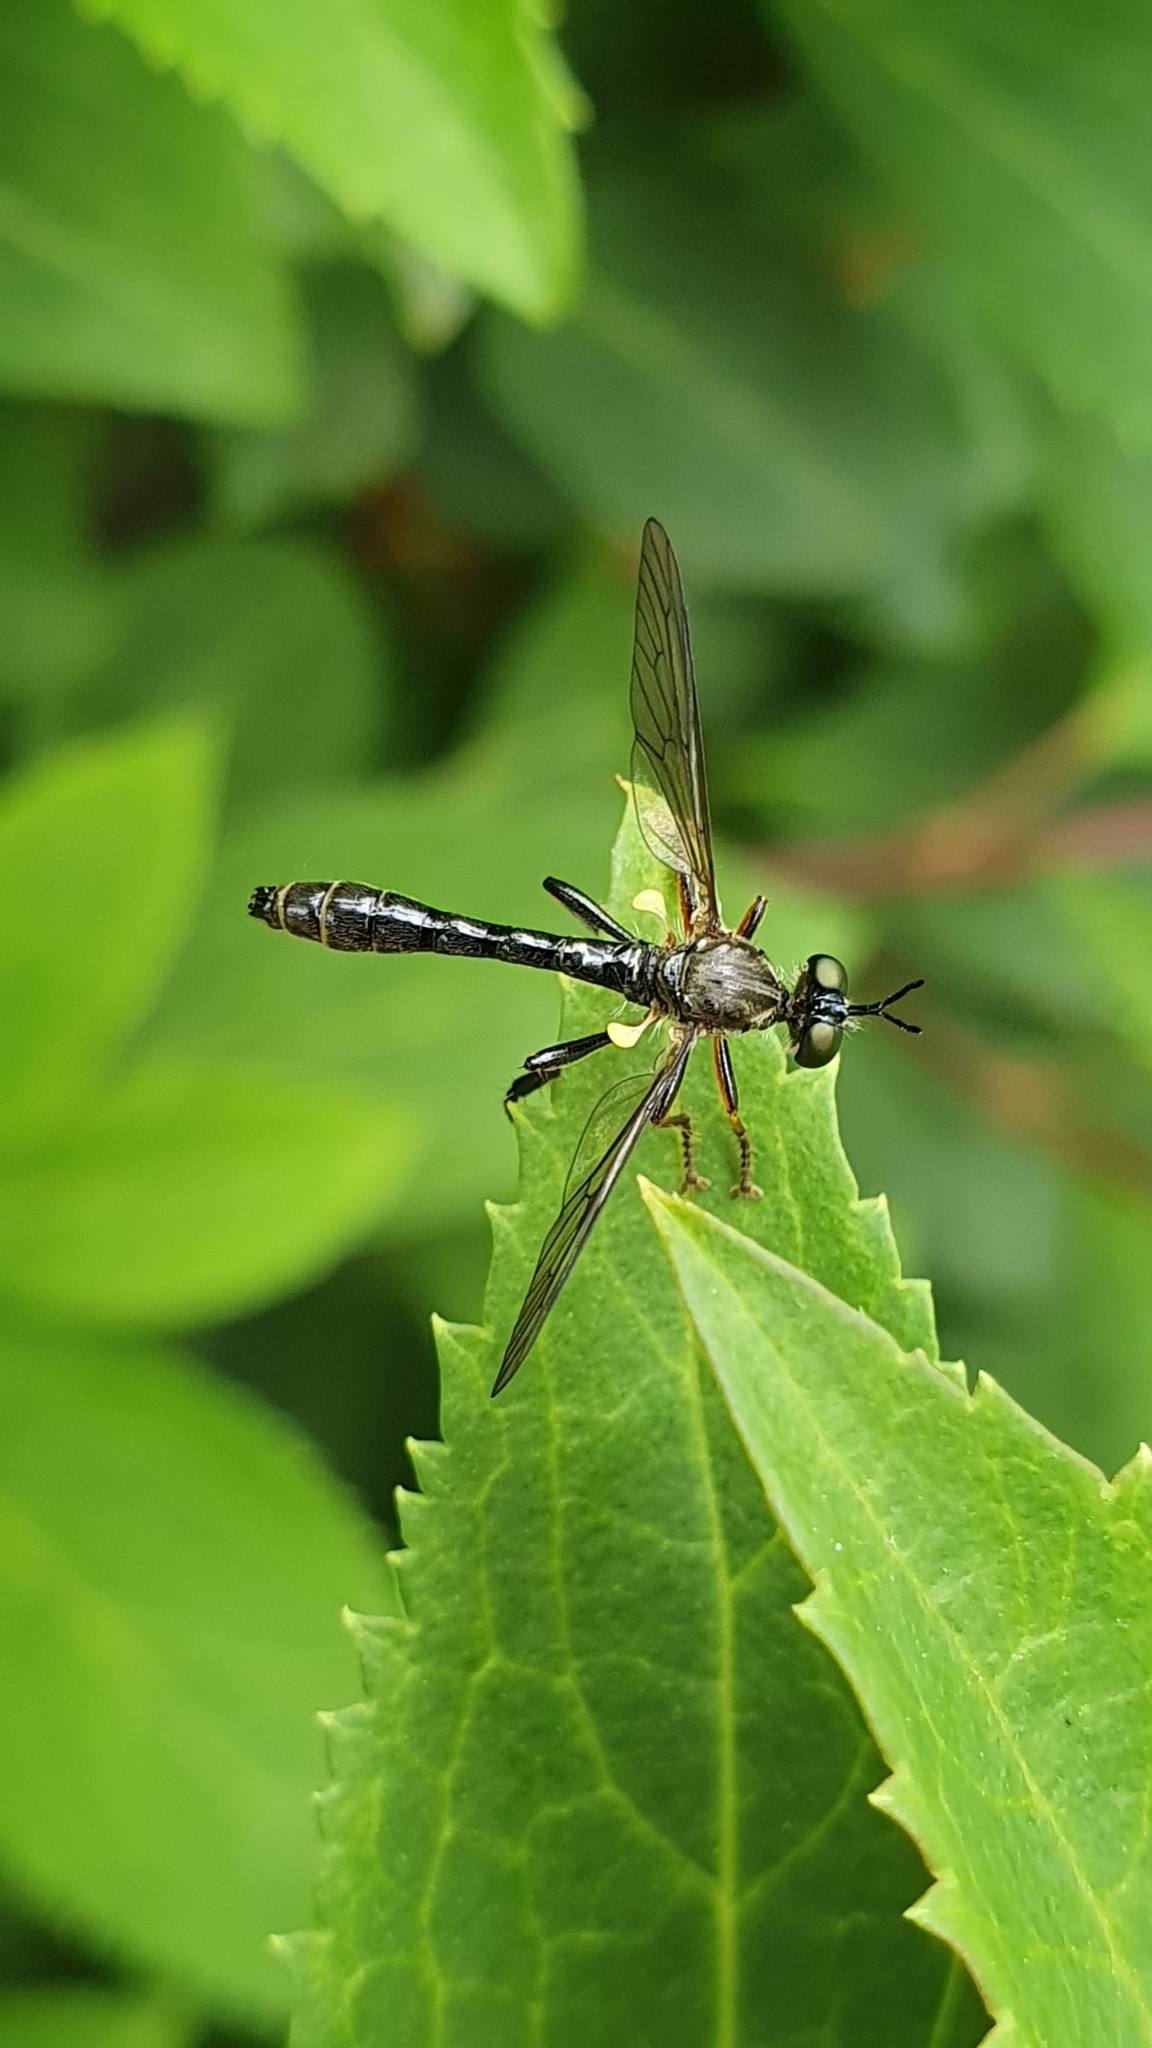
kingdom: Animalia
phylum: Arthropoda
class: Insecta
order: Diptera
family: Asilidae
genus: Dioctria
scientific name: Dioctria hyalipennis
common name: Stripe-legged robberfly
